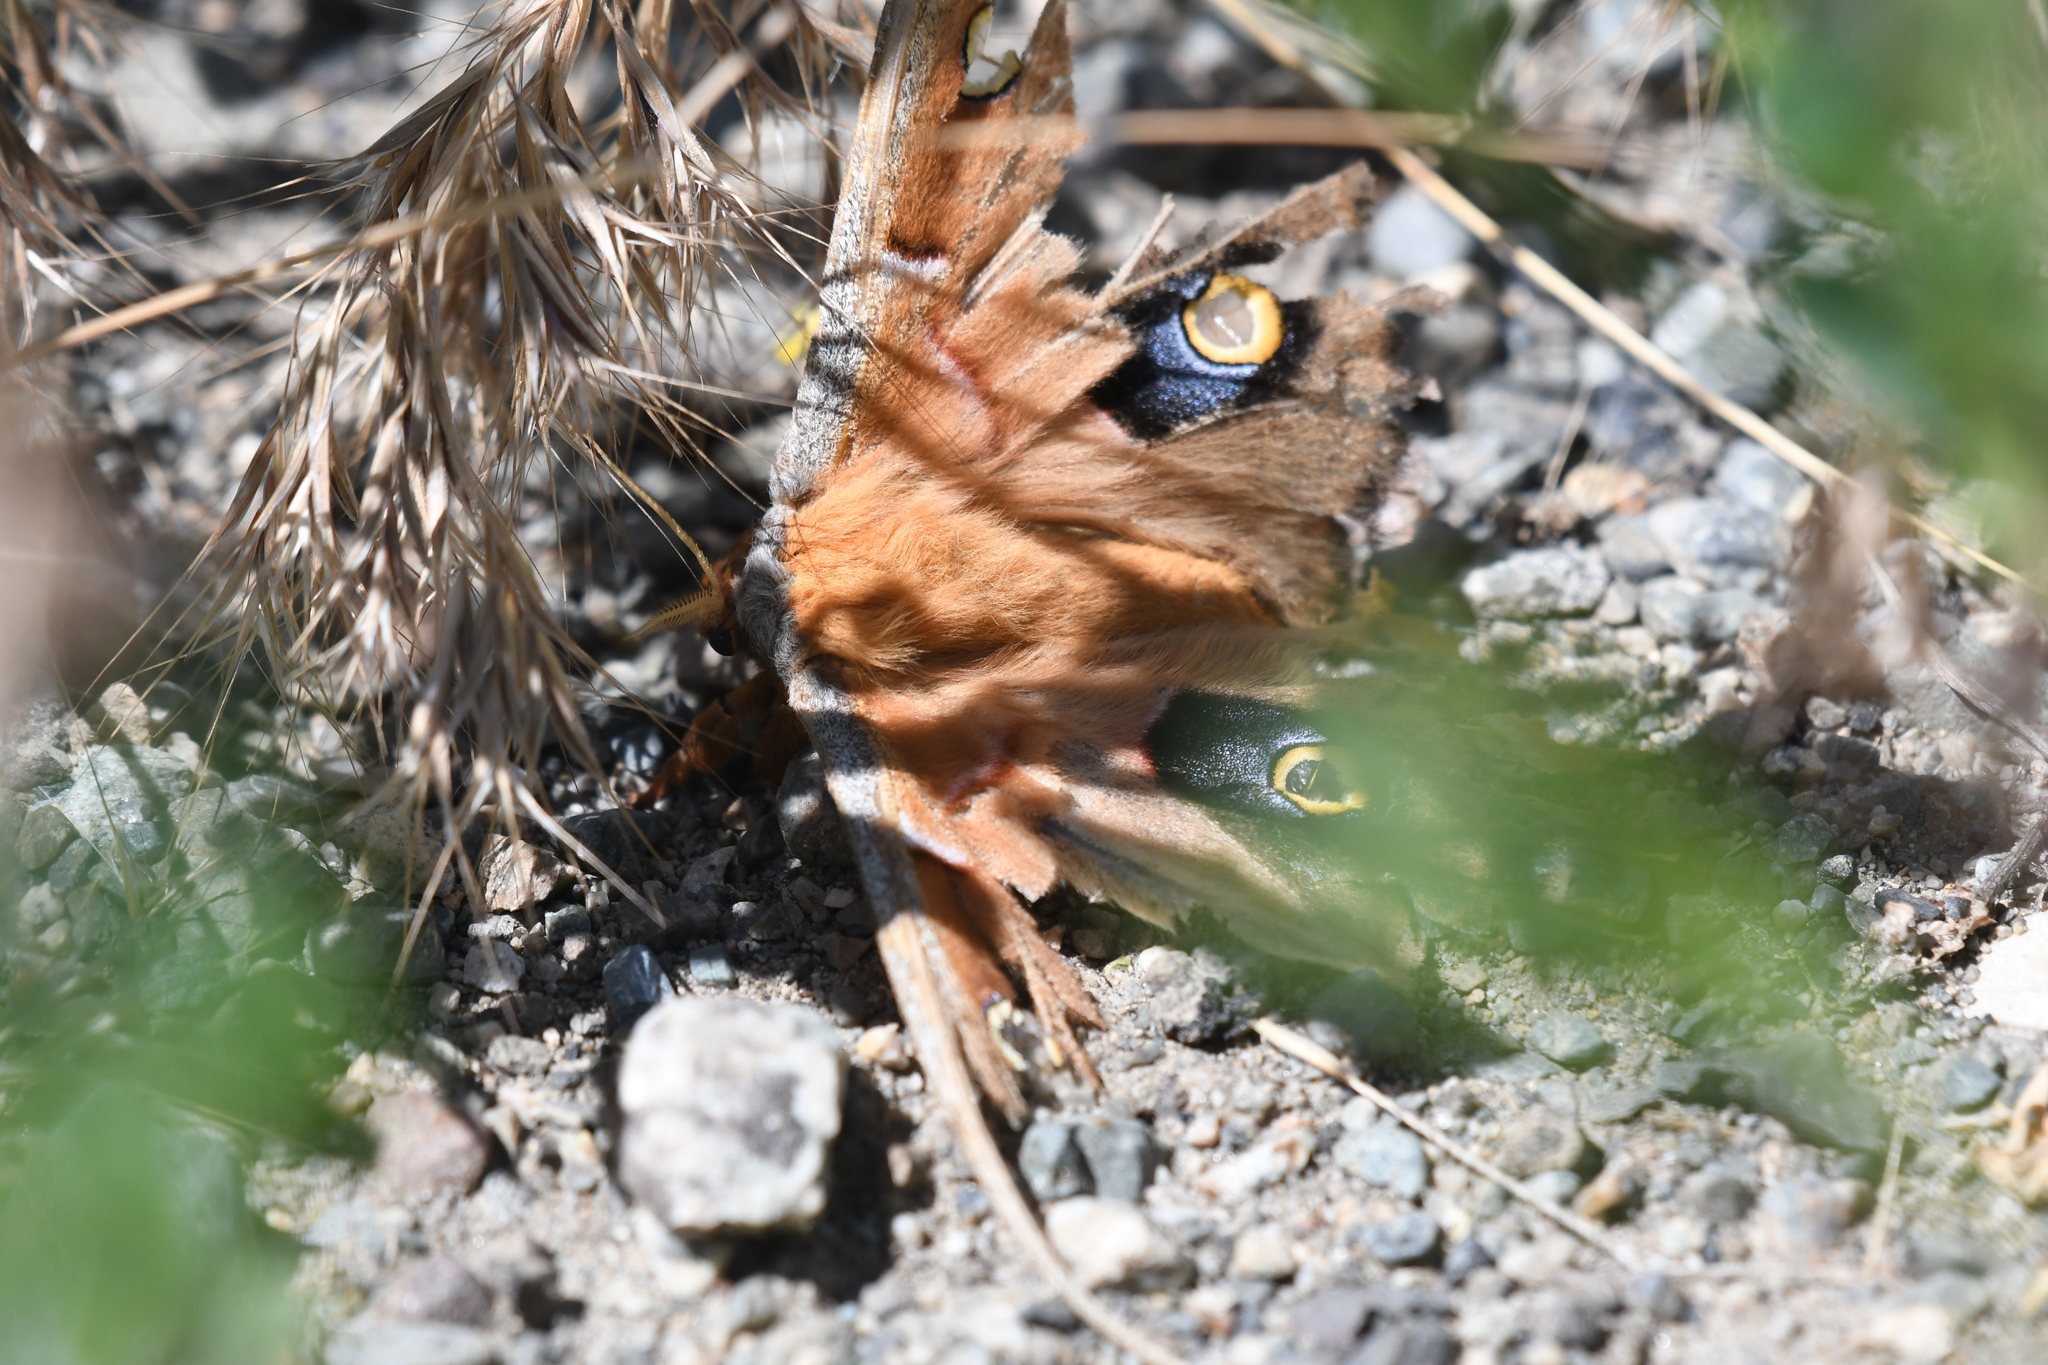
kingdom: Animalia
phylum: Arthropoda
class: Insecta
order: Lepidoptera
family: Saturniidae
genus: Antheraea
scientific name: Antheraea polyphemus
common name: Polyphemus moth
